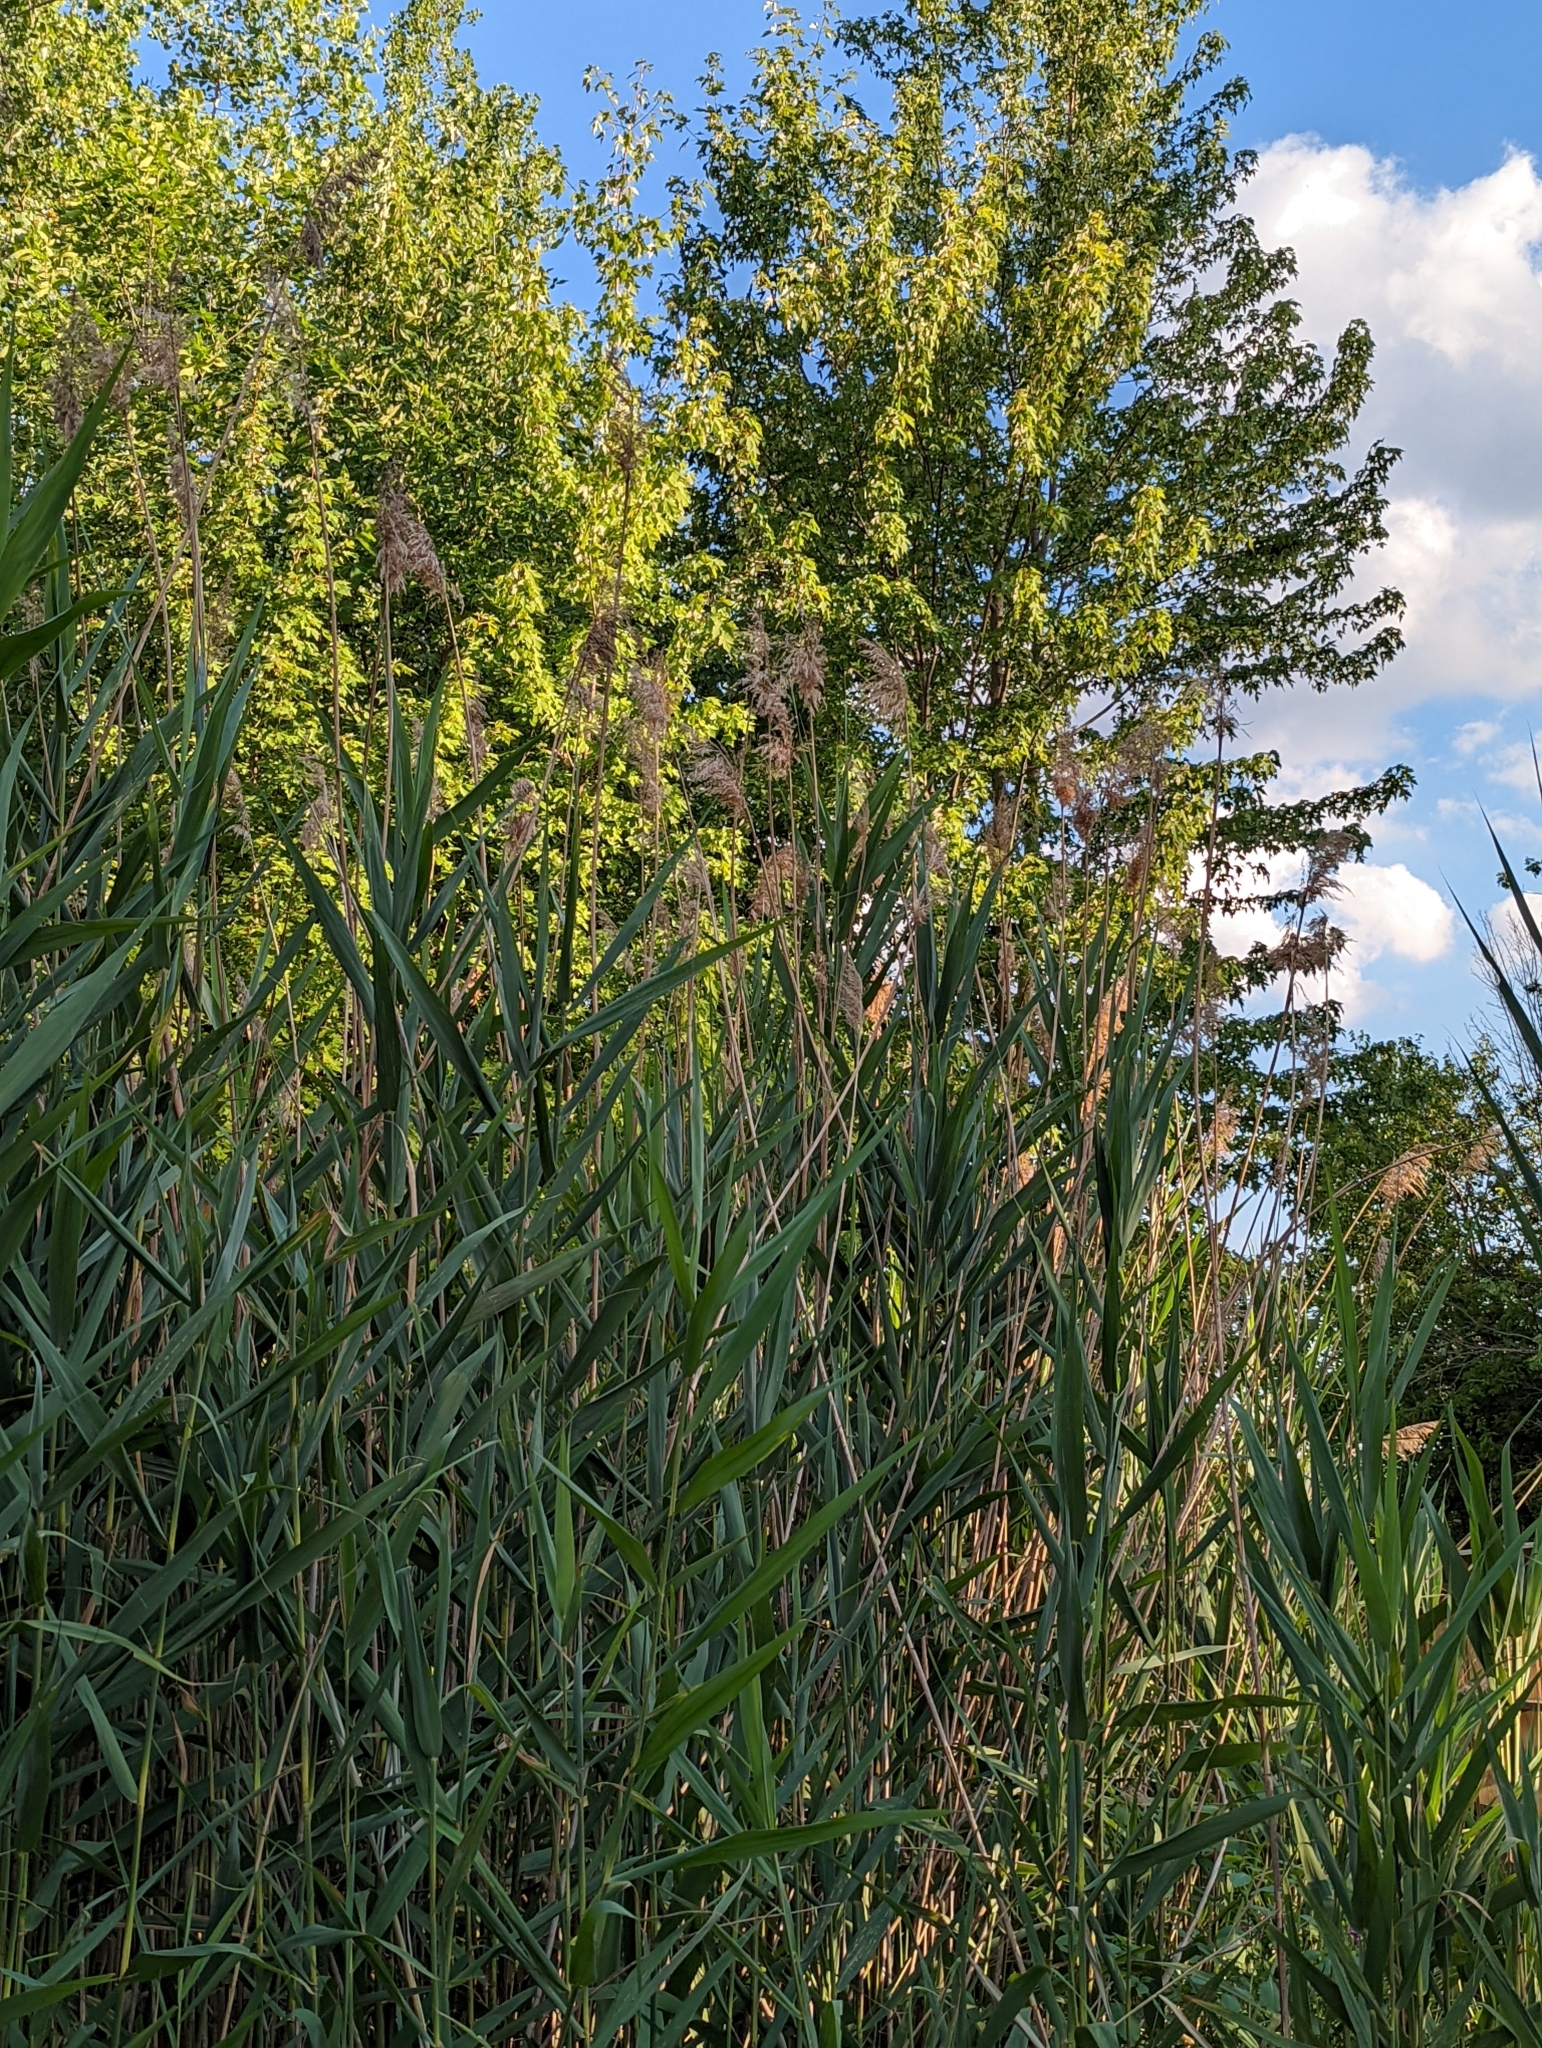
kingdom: Plantae
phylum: Tracheophyta
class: Liliopsida
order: Poales
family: Poaceae
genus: Phragmites
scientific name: Phragmites australis
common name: Common reed
